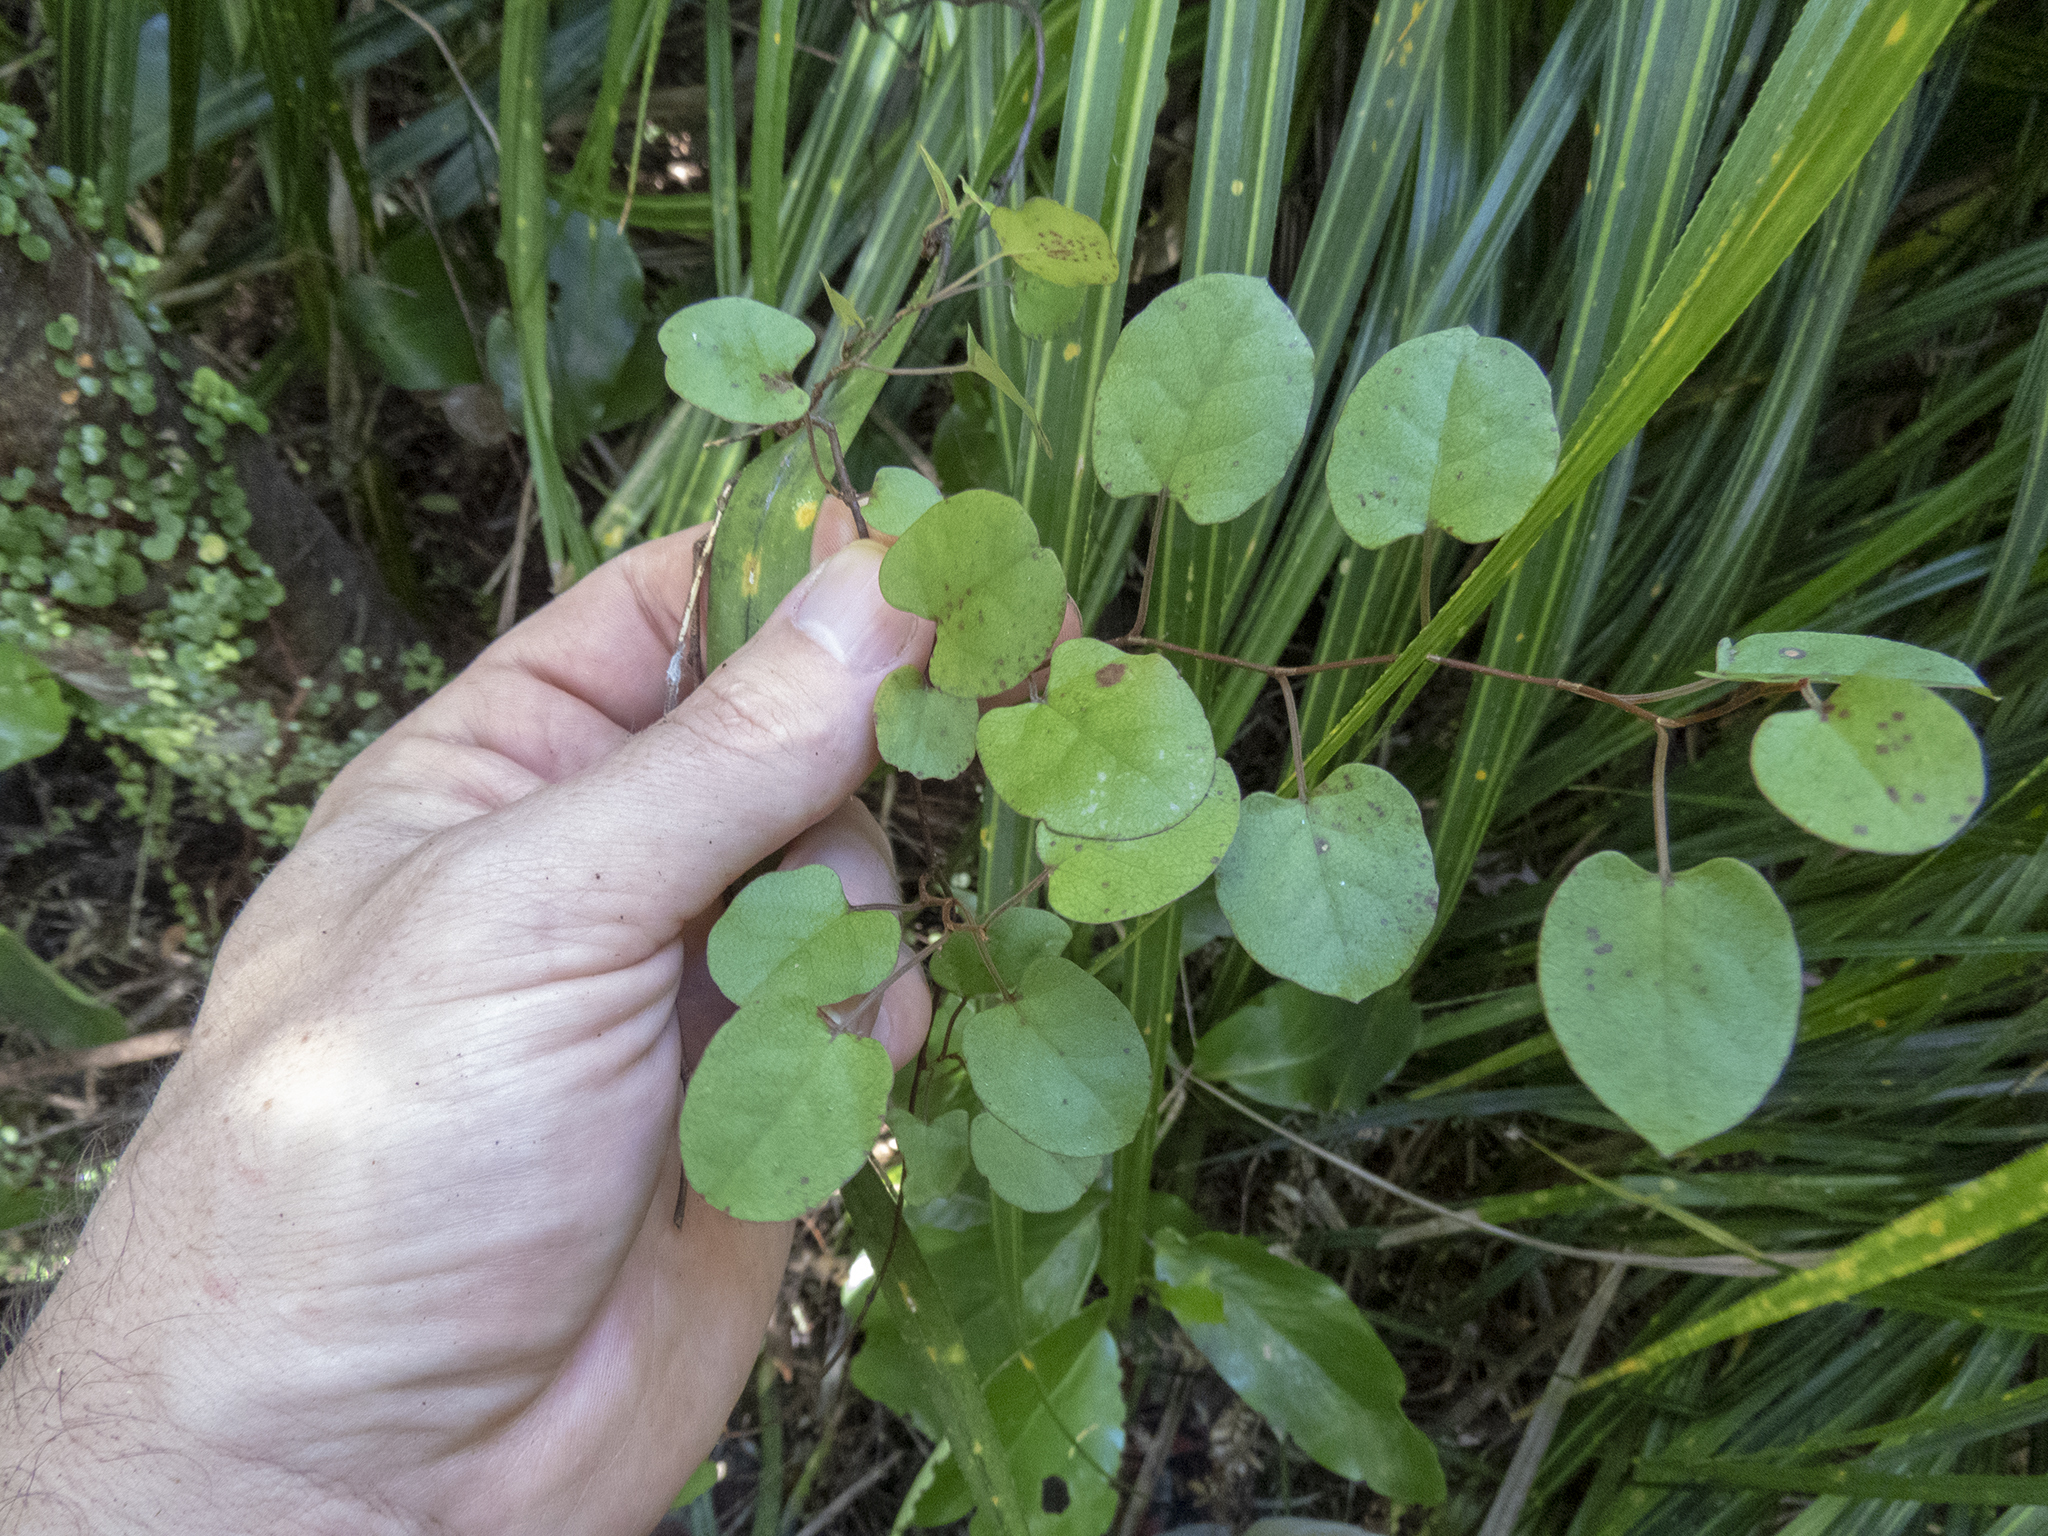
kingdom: Plantae
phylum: Tracheophyta
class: Magnoliopsida
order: Caryophyllales
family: Polygonaceae
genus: Muehlenbeckia
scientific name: Muehlenbeckia australis
